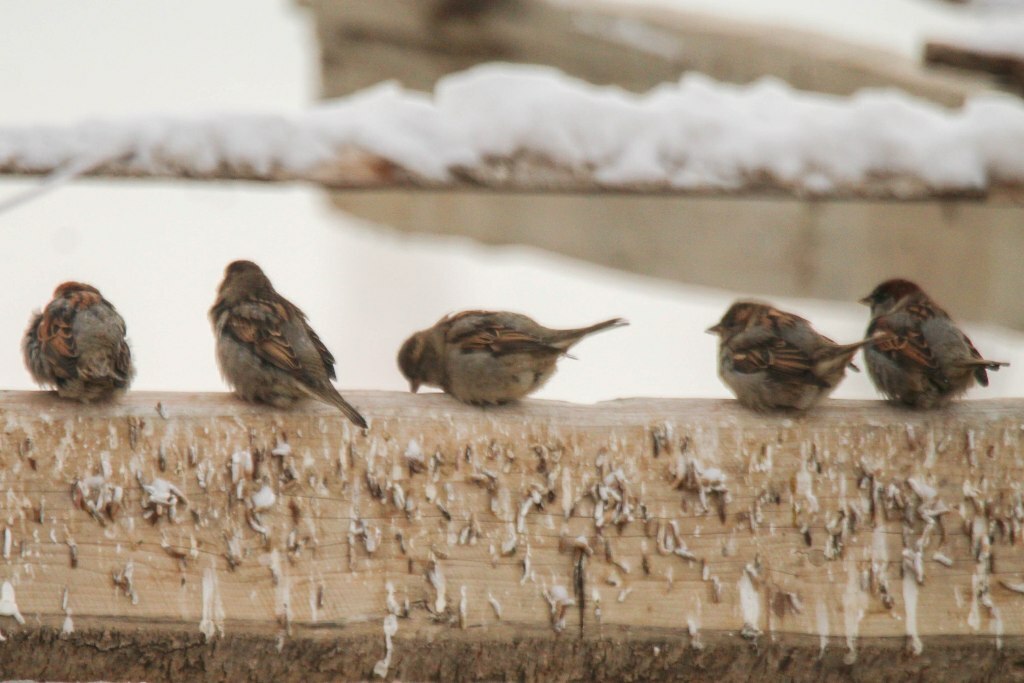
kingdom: Animalia
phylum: Chordata
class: Aves
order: Passeriformes
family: Passeridae
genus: Passer
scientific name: Passer domesticus
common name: House sparrow
